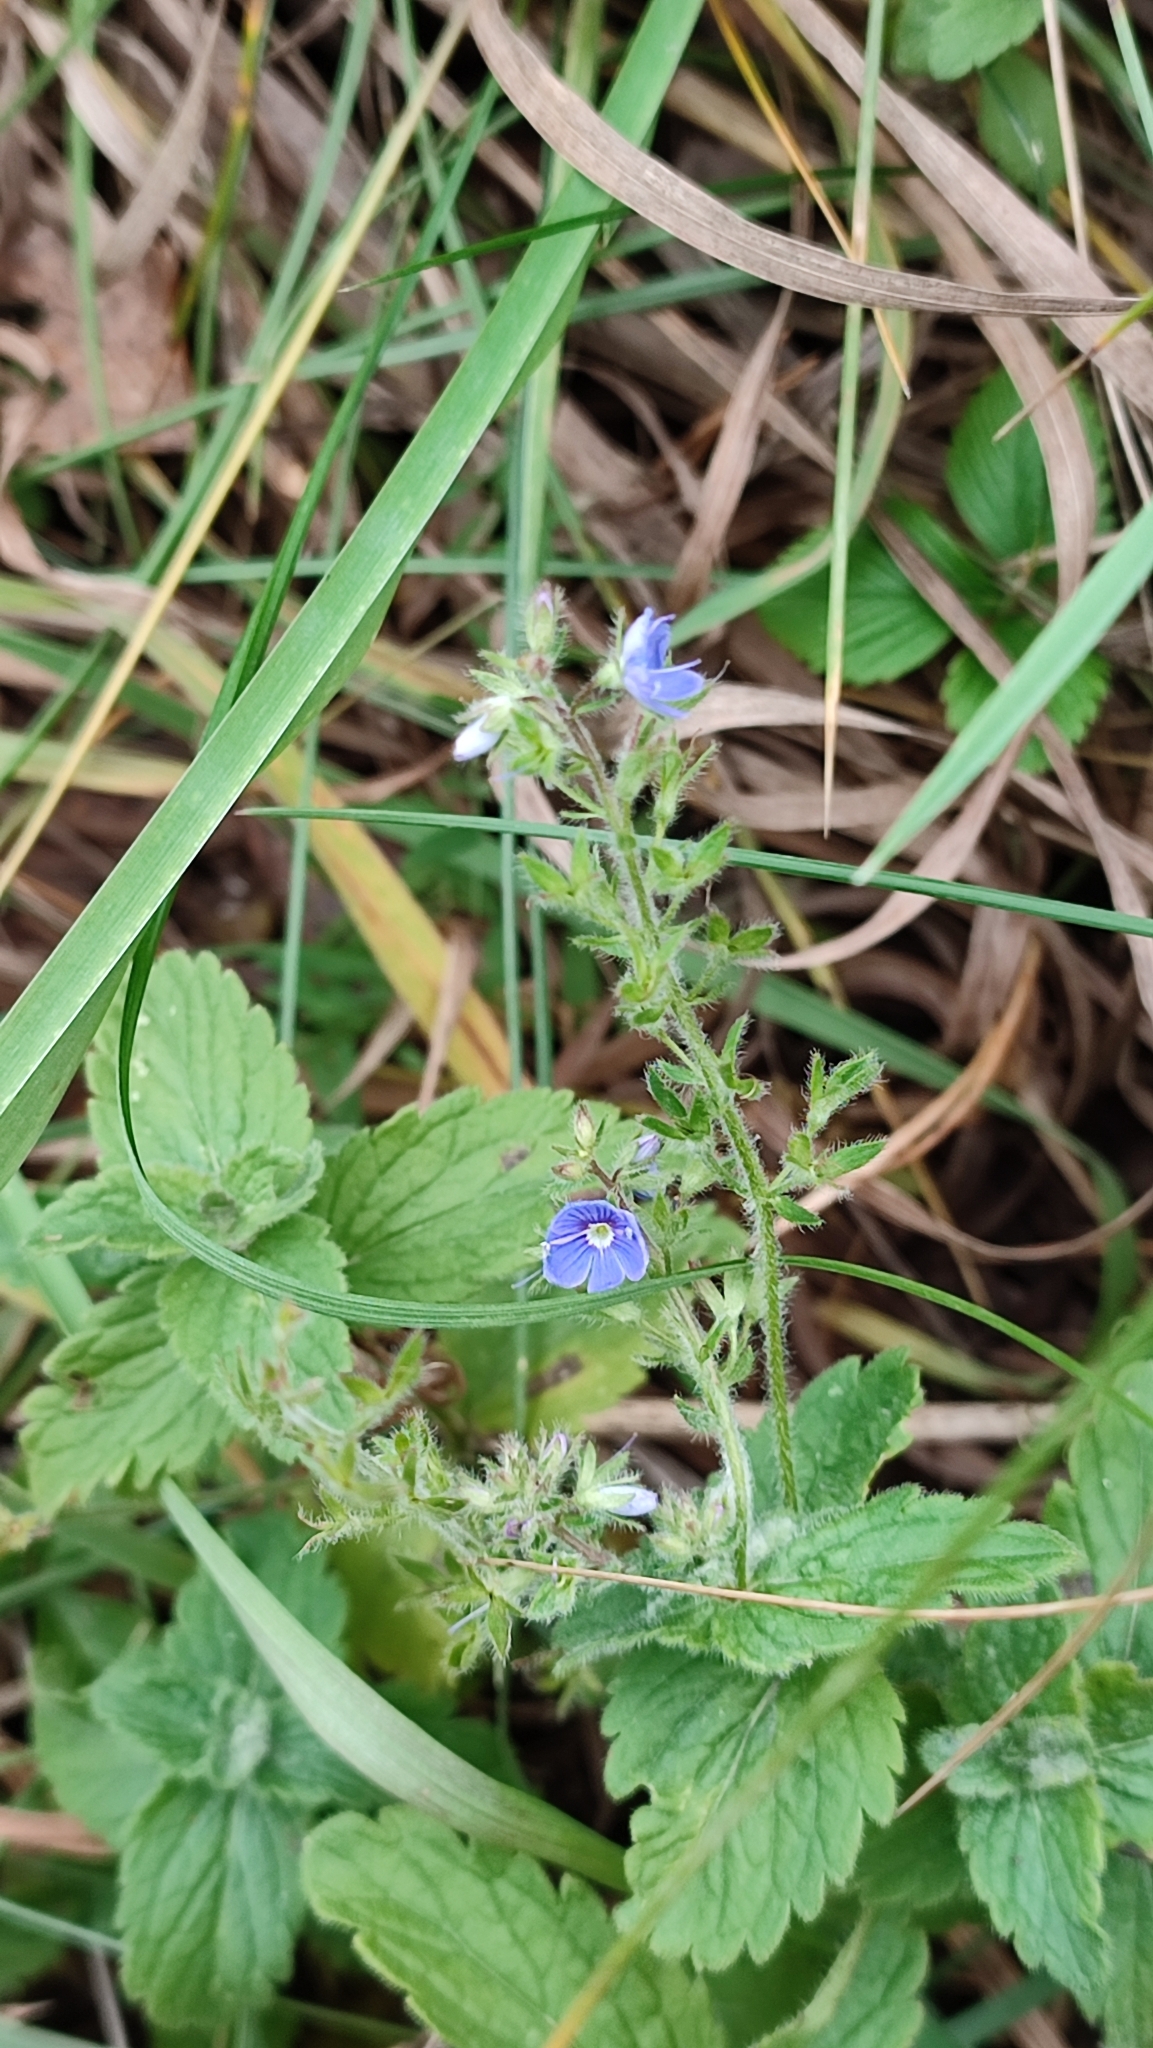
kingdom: Plantae
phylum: Tracheophyta
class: Magnoliopsida
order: Lamiales
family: Plantaginaceae
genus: Veronica
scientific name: Veronica chamaedrys
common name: Germander speedwell
